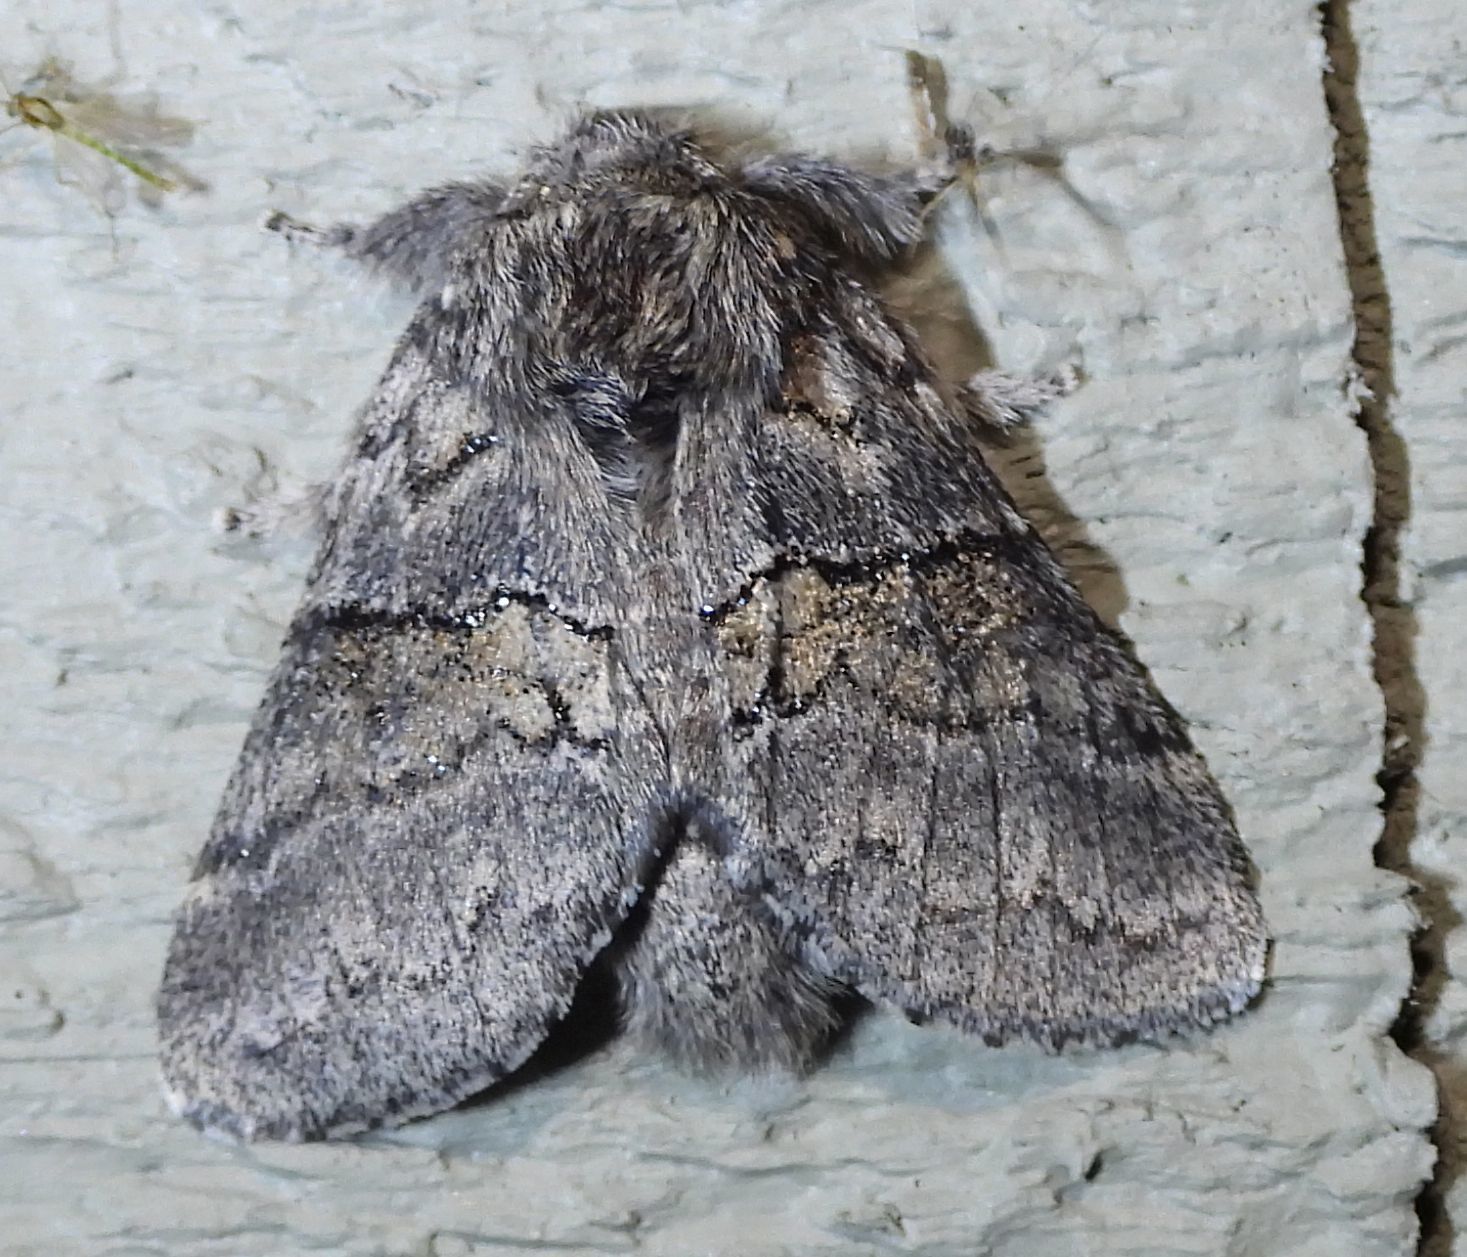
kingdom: Animalia
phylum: Arthropoda
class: Insecta
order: Lepidoptera
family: Notodontidae
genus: Gluphisia
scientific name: Gluphisia septentrionis
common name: Common gluphisia
